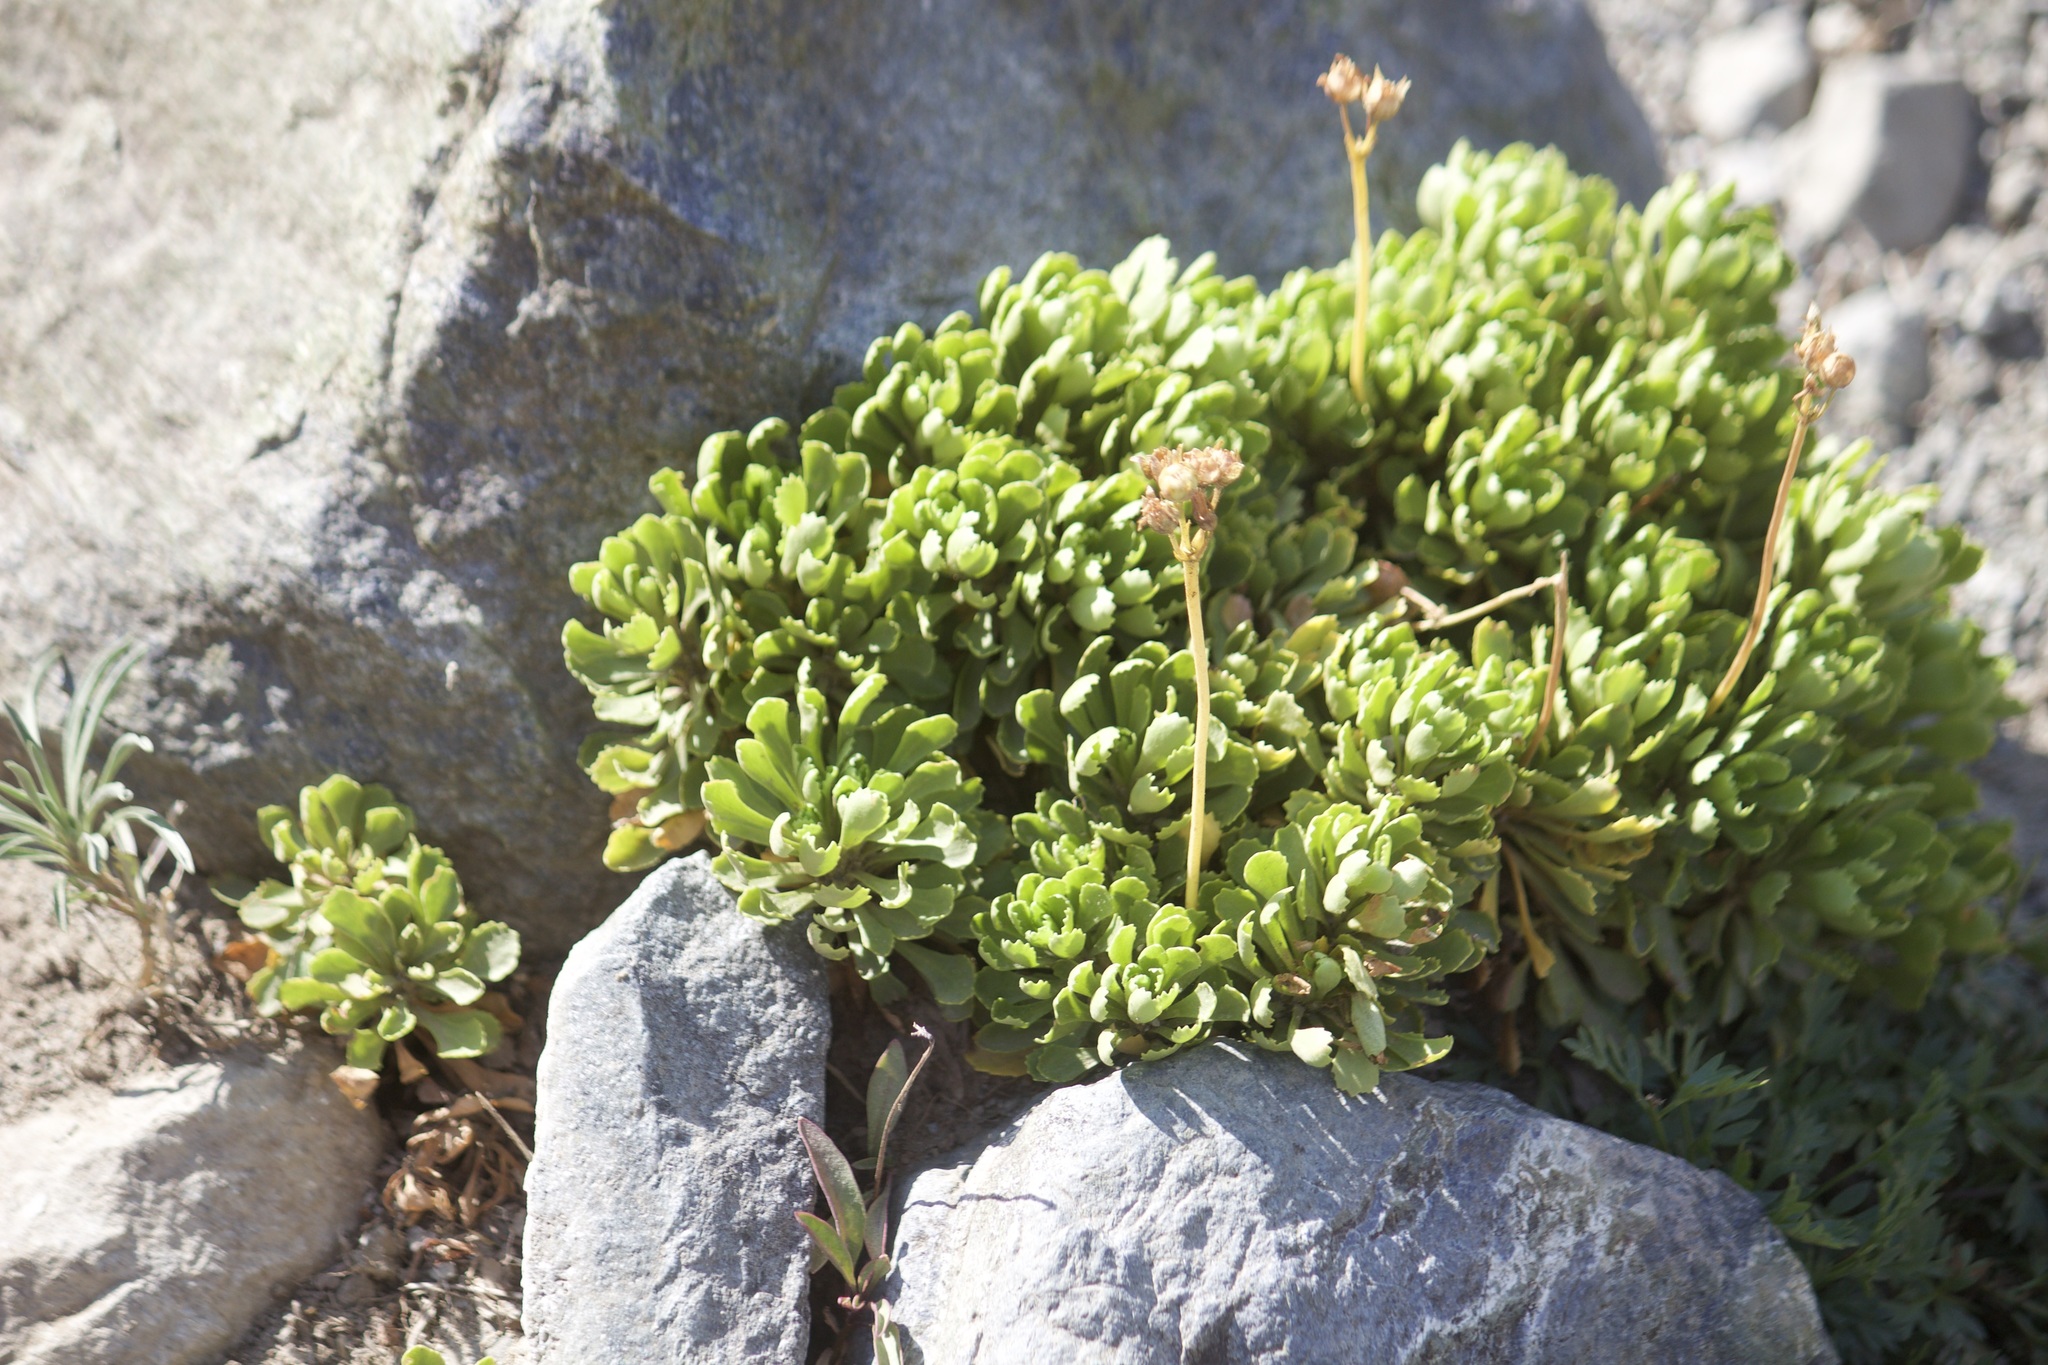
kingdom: Plantae
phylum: Tracheophyta
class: Magnoliopsida
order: Ericales
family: Primulaceae
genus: Primula
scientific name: Primula suffrutescens
